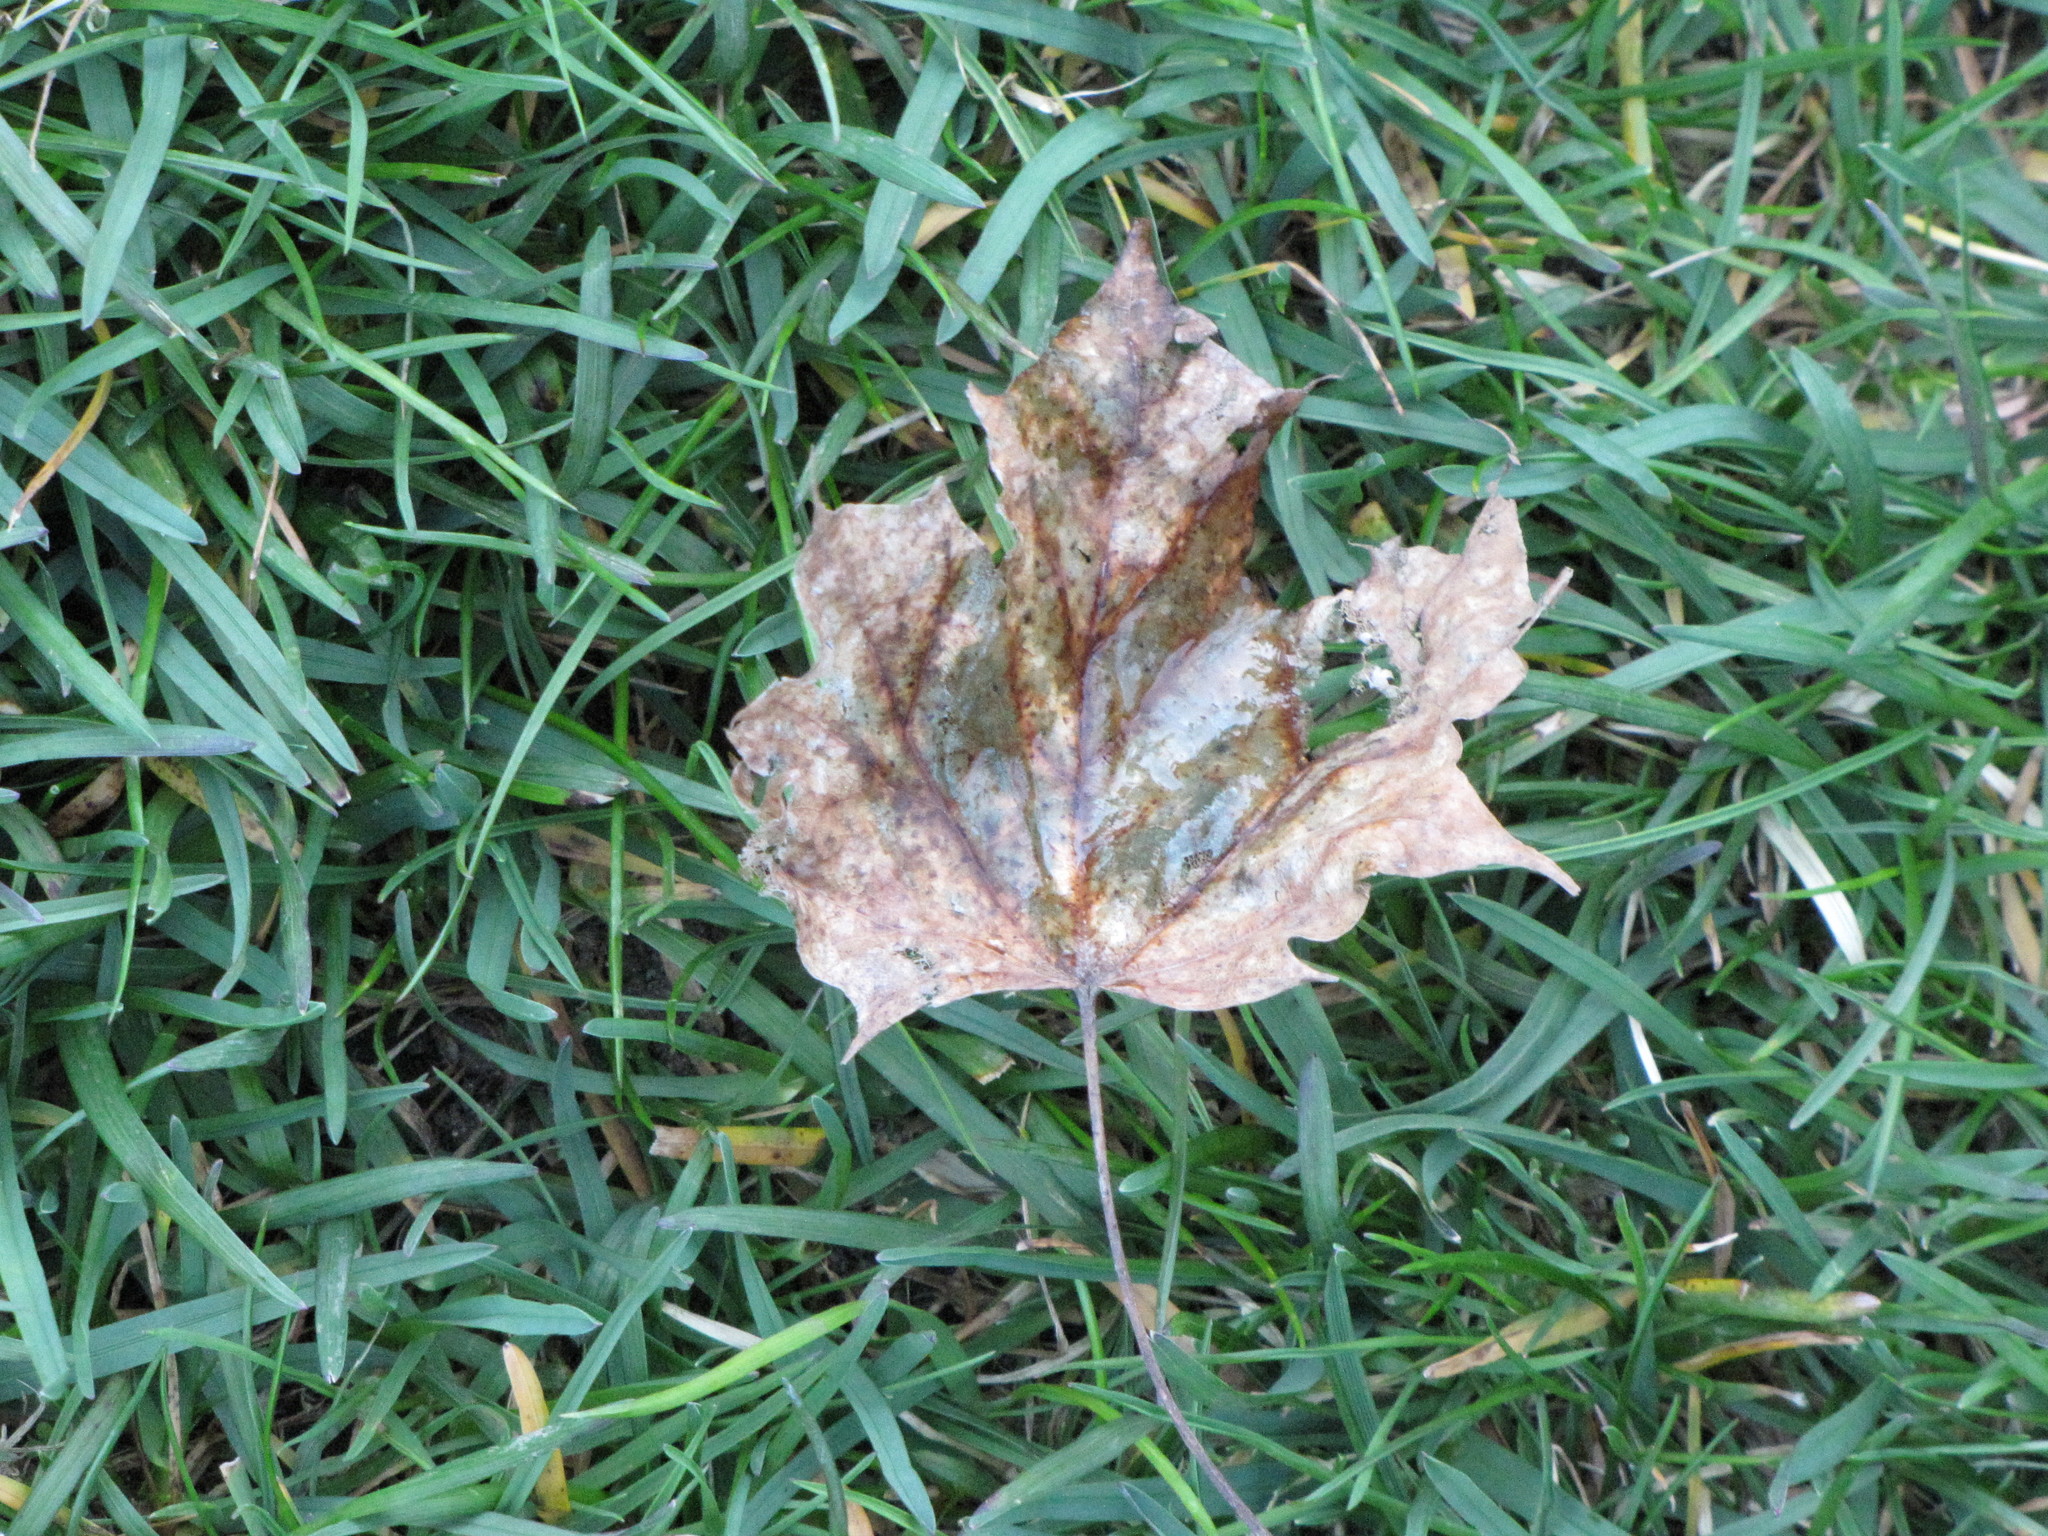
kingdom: Plantae
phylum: Tracheophyta
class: Magnoliopsida
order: Sapindales
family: Sapindaceae
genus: Acer
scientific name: Acer platanoides
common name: Norway maple
